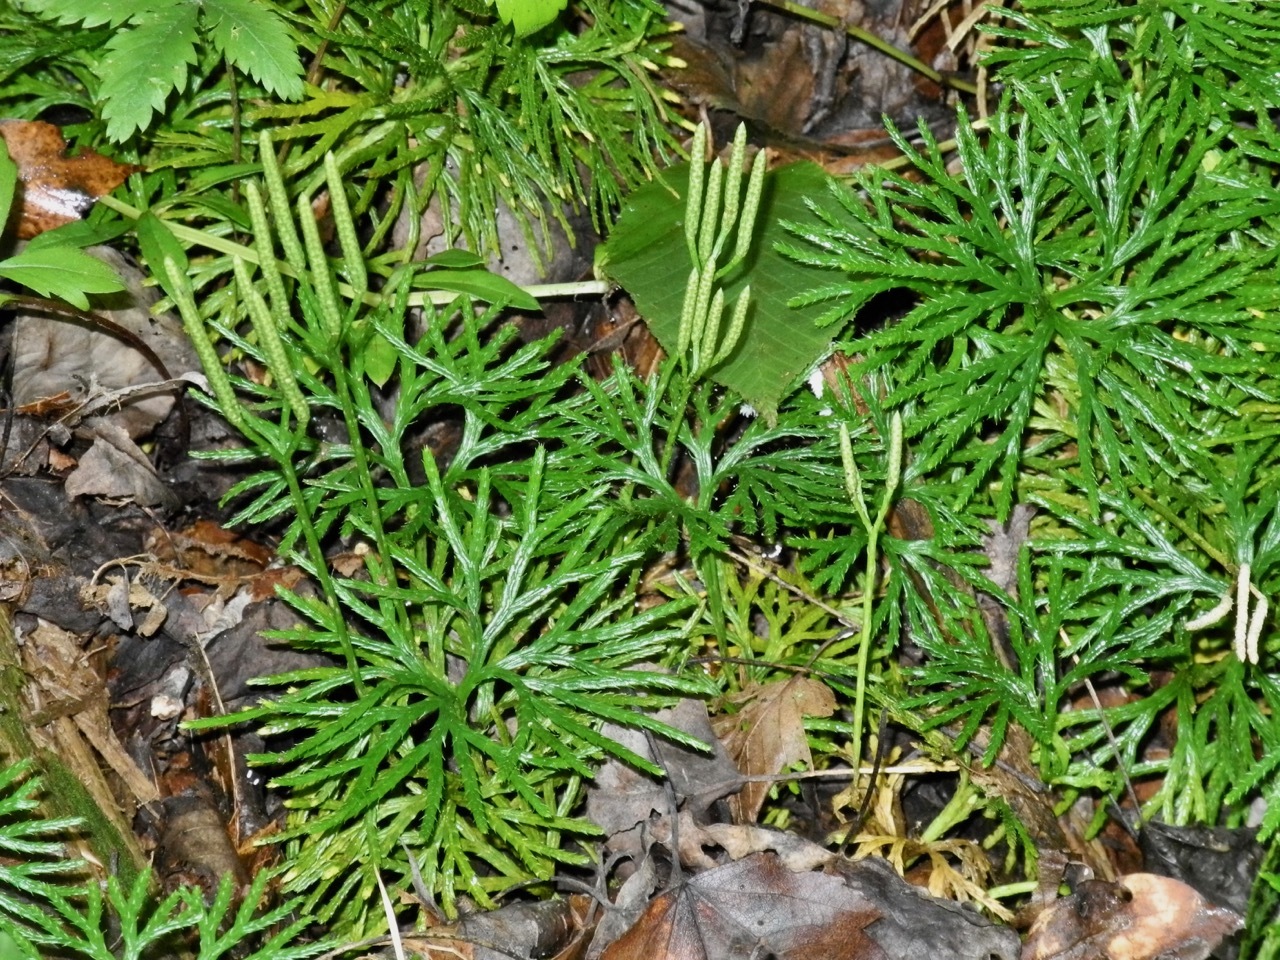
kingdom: Plantae
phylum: Tracheophyta
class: Lycopodiopsida
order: Lycopodiales
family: Lycopodiaceae
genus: Diphasiastrum
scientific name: Diphasiastrum digitatum
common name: Southern running-pine
